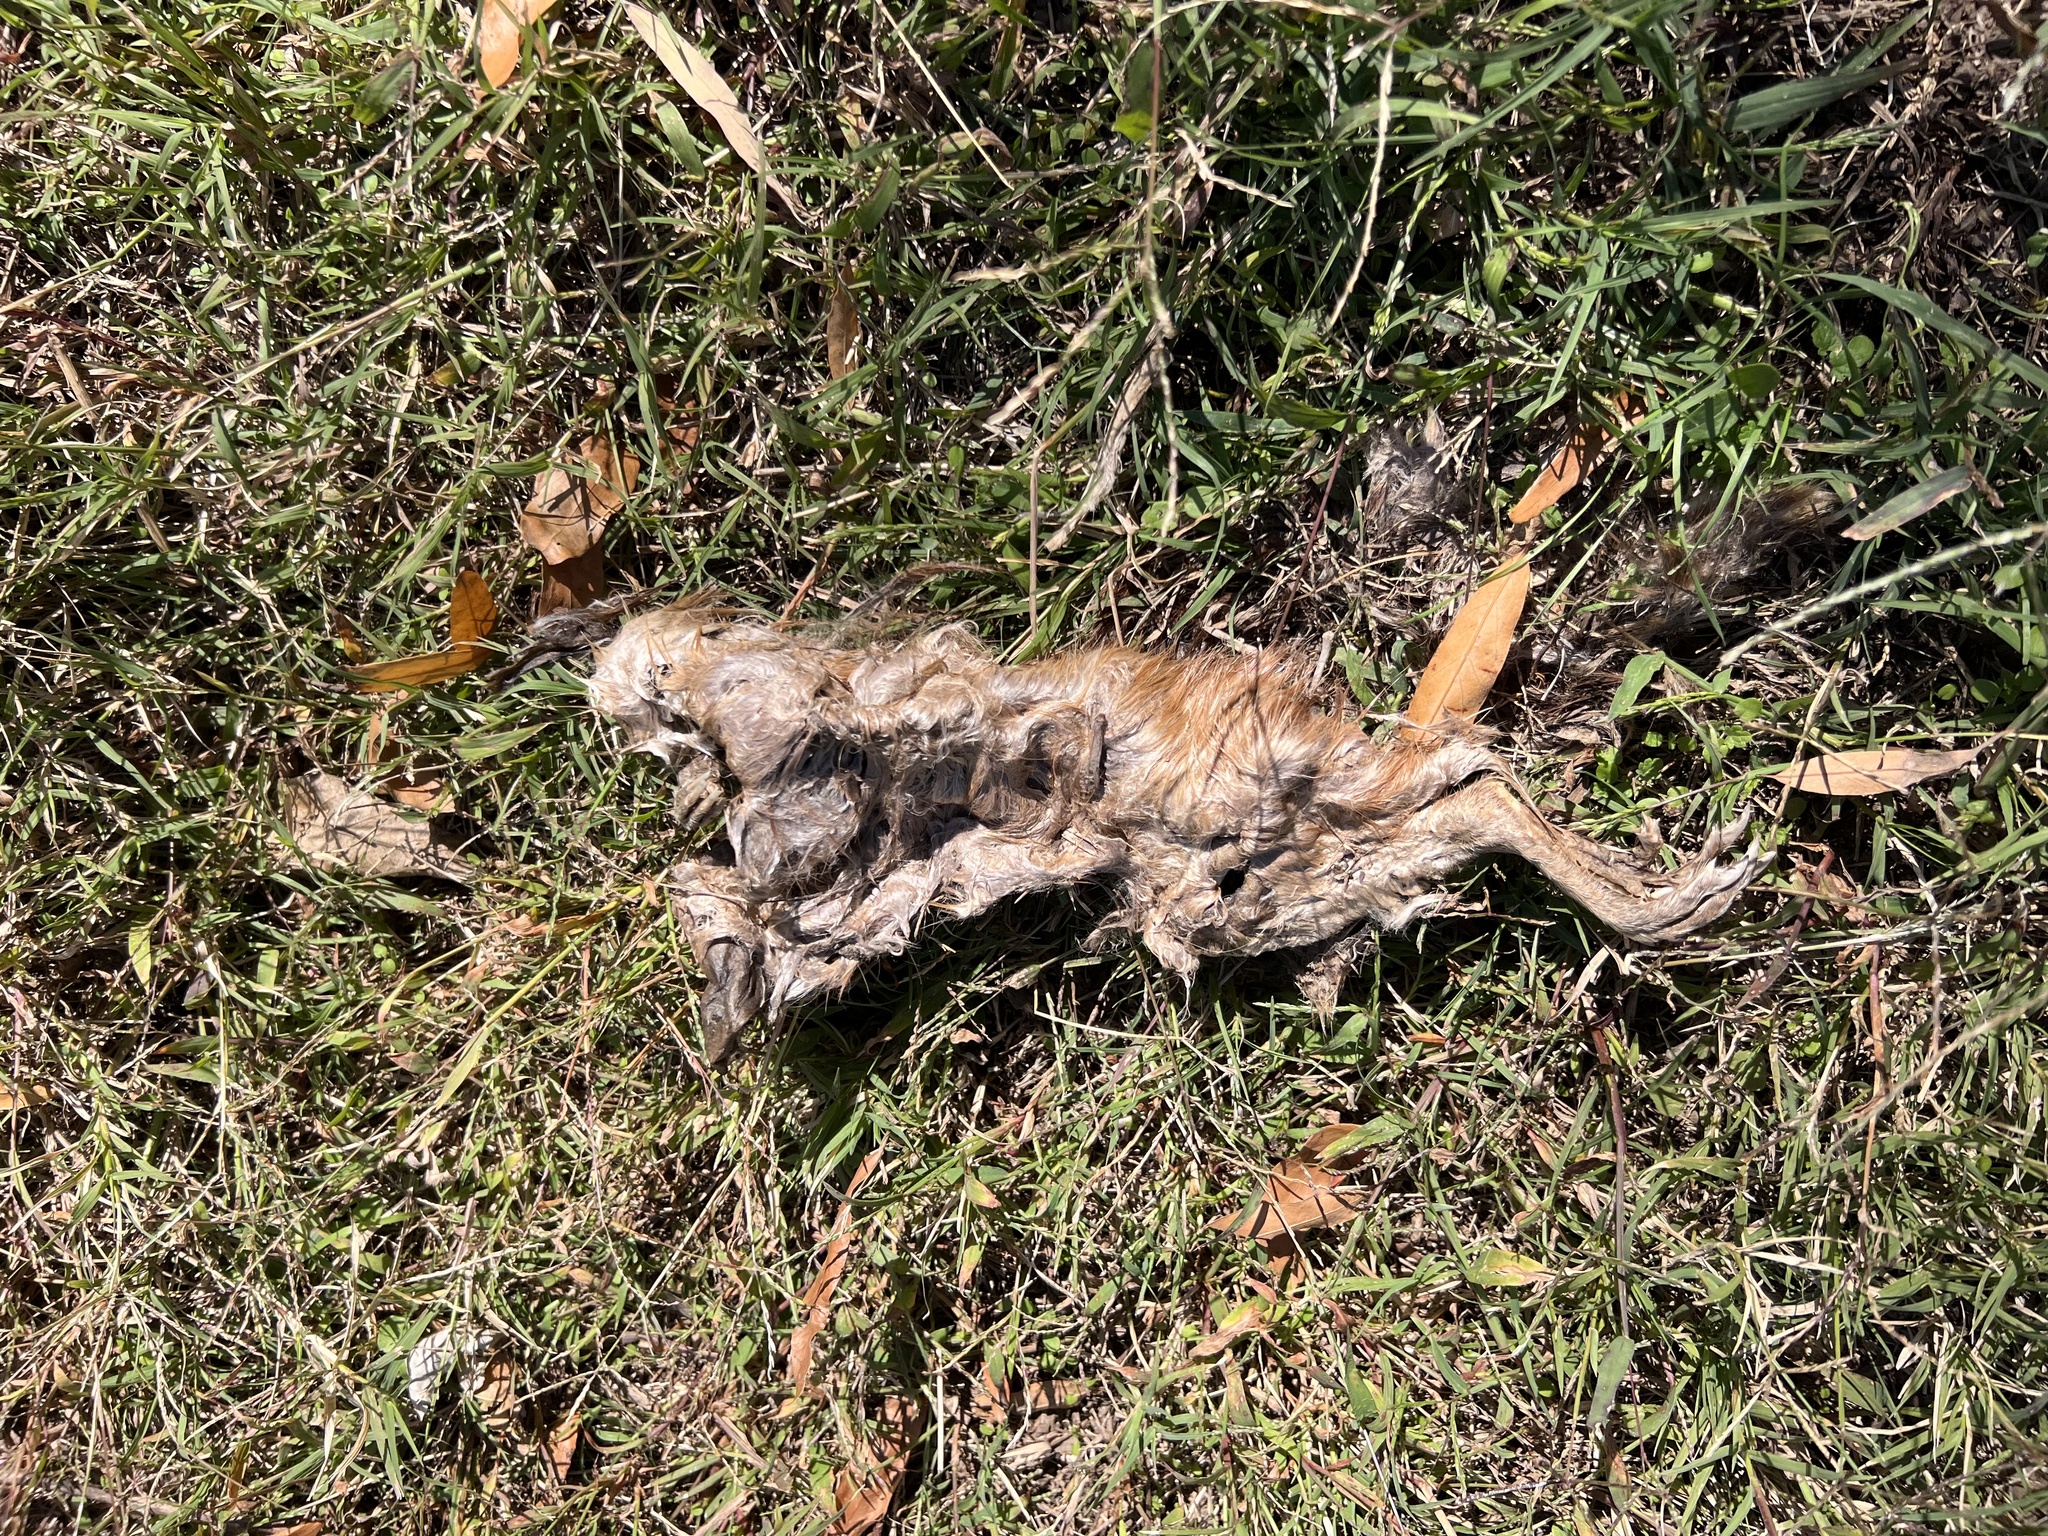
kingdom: Animalia
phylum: Chordata
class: Mammalia
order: Rodentia
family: Cricetidae
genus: Ondatra
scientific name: Ondatra zibethicus
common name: Muskrat
